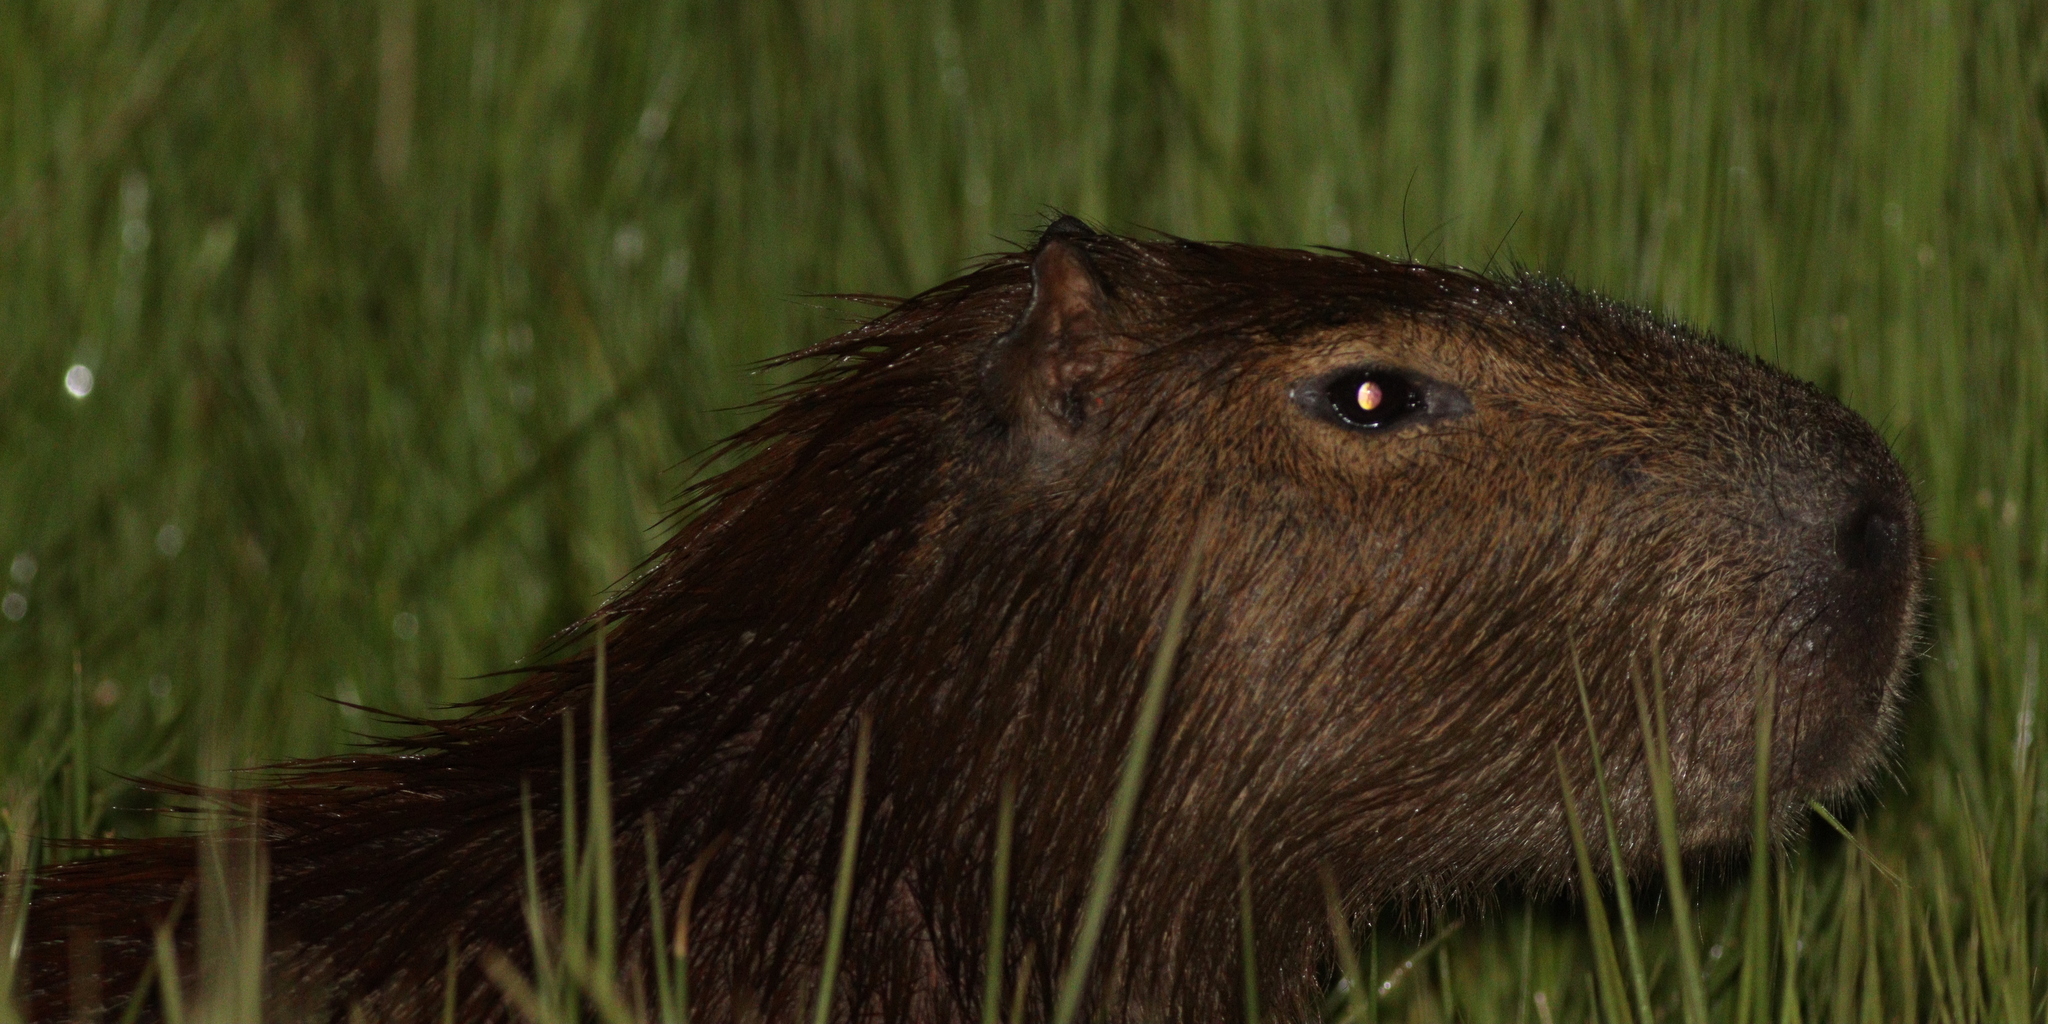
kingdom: Animalia
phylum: Chordata
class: Mammalia
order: Rodentia
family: Caviidae
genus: Hydrochoerus
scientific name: Hydrochoerus hydrochaeris
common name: Capybara
